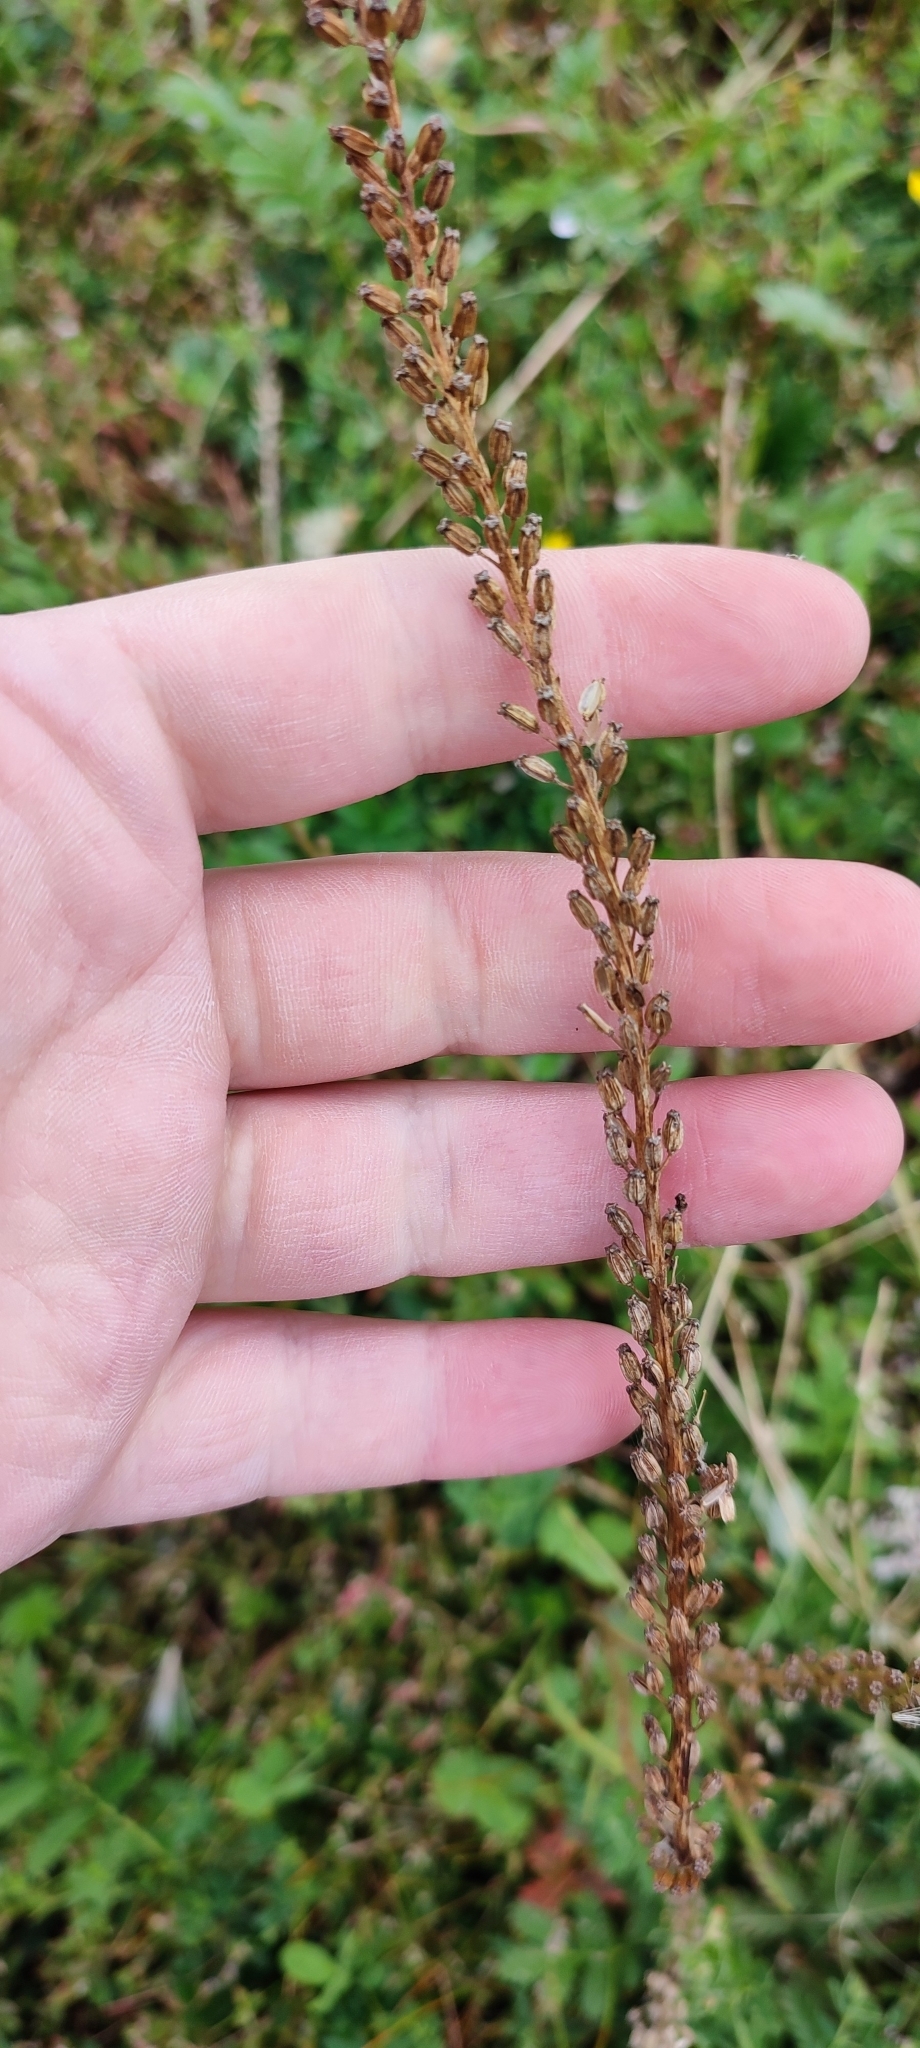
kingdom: Plantae
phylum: Tracheophyta
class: Liliopsida
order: Alismatales
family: Juncaginaceae
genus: Triglochin
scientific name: Triglochin maritima
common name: Sea arrowgrass
